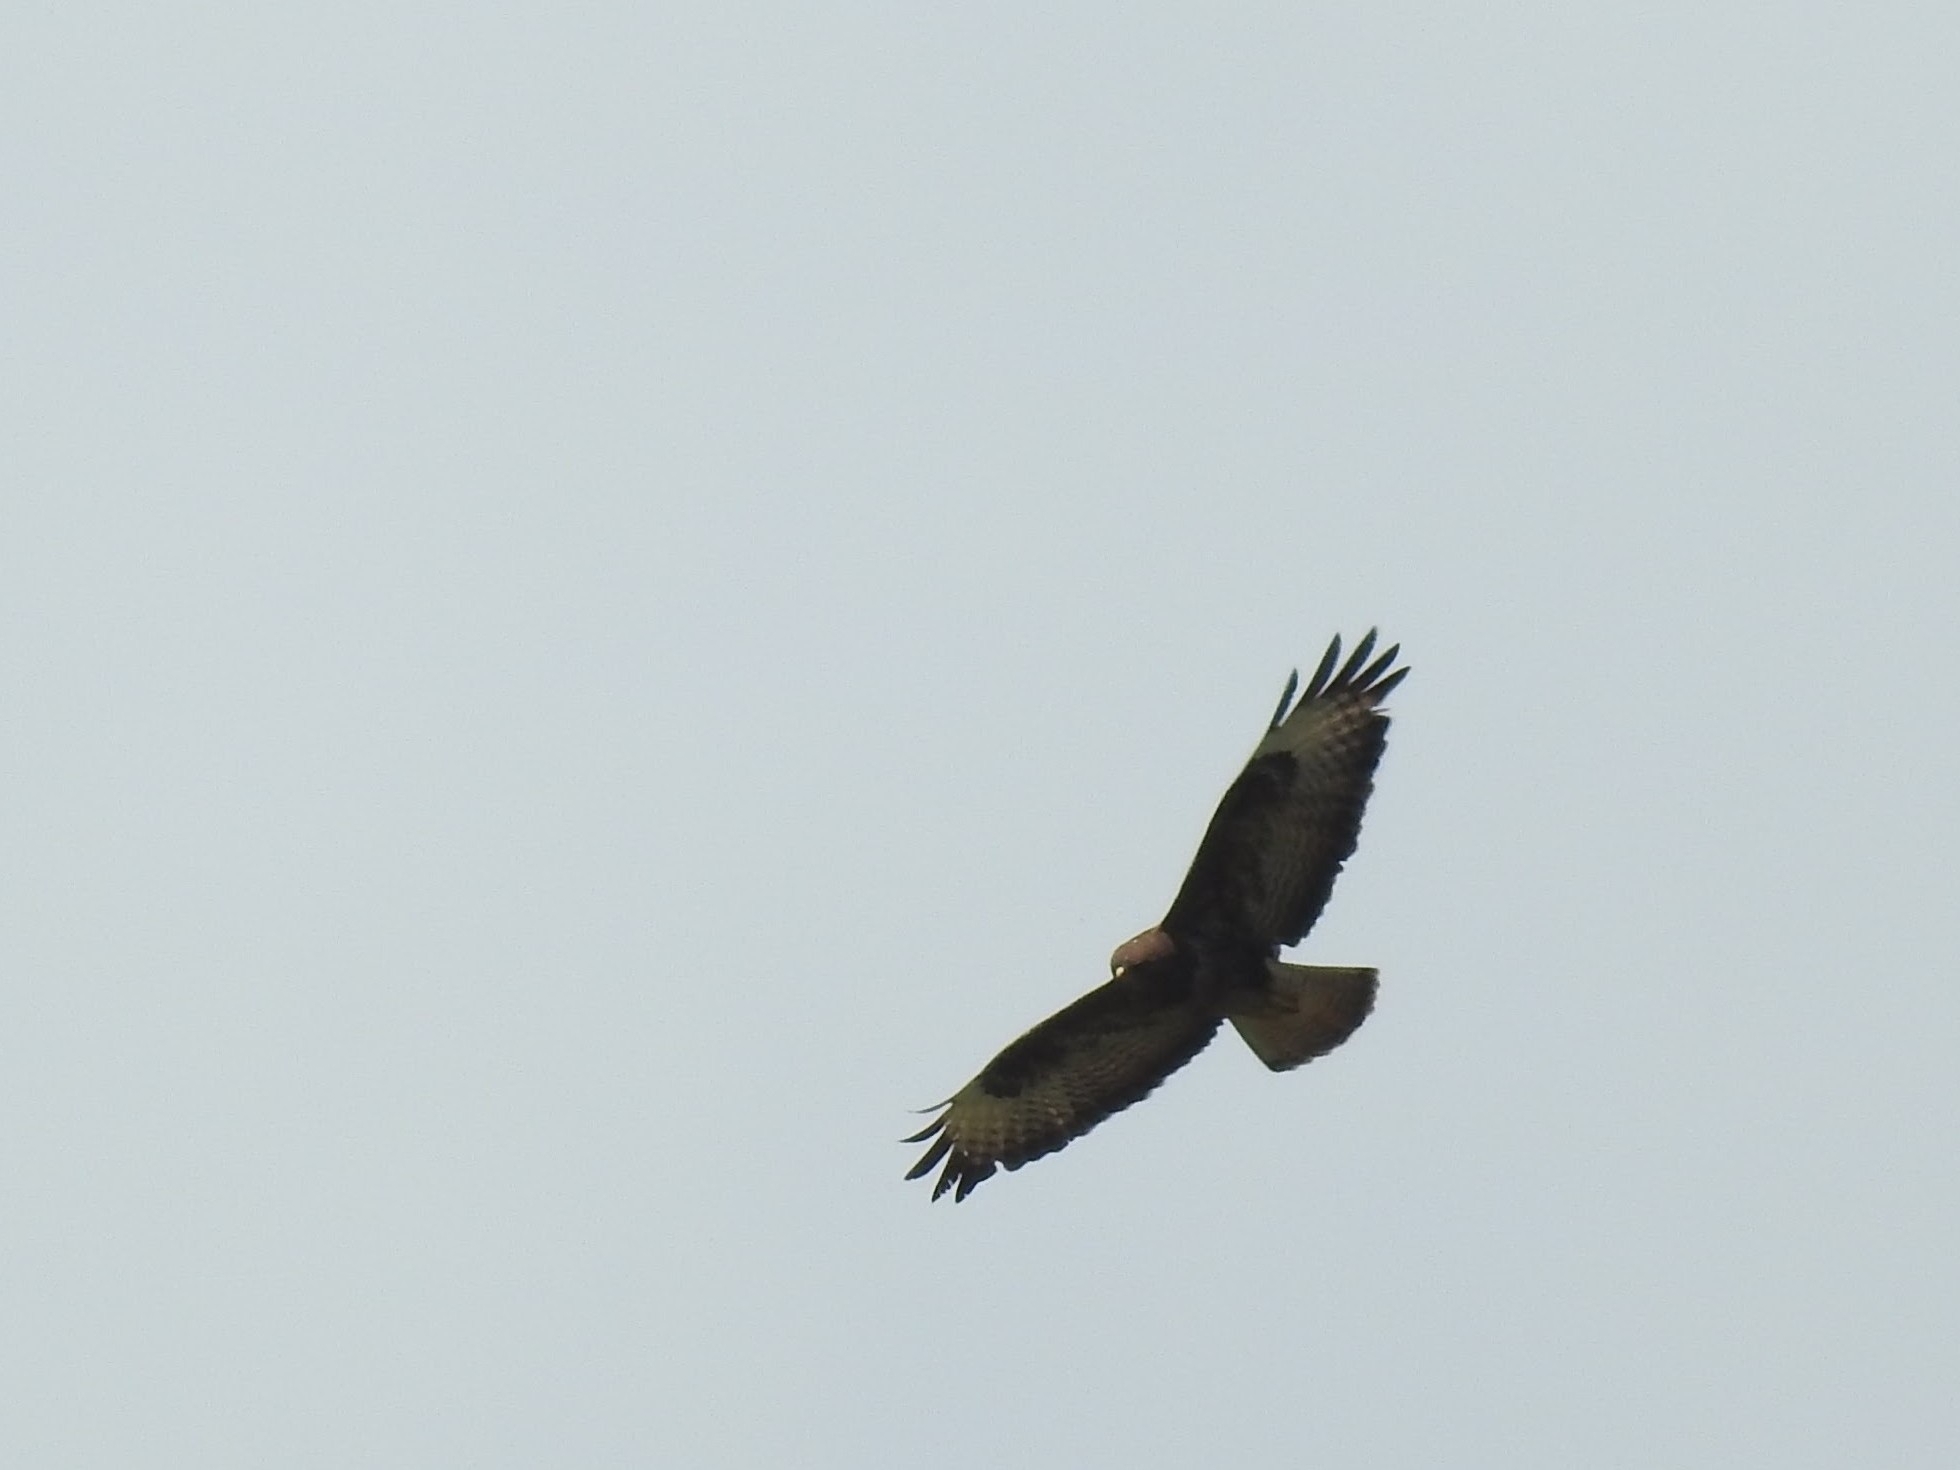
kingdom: Animalia
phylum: Chordata
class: Aves
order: Accipitriformes
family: Accipitridae
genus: Buteo
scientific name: Buteo buteo
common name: Common buzzard
